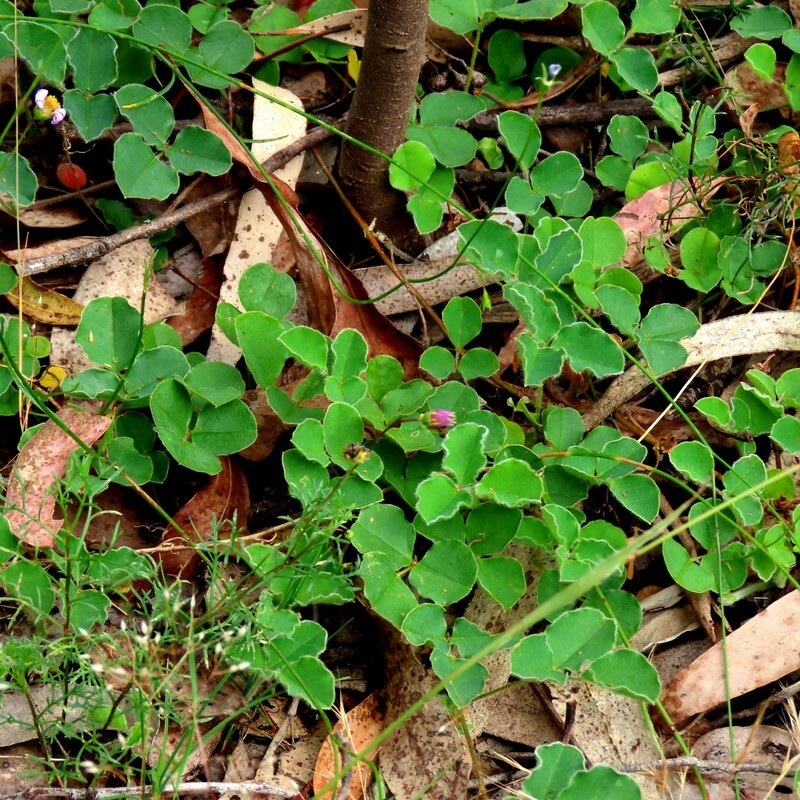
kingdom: Plantae
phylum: Tracheophyta
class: Magnoliopsida
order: Fabales
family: Fabaceae
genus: Kennedia
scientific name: Kennedia prostrata
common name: Running-postman
